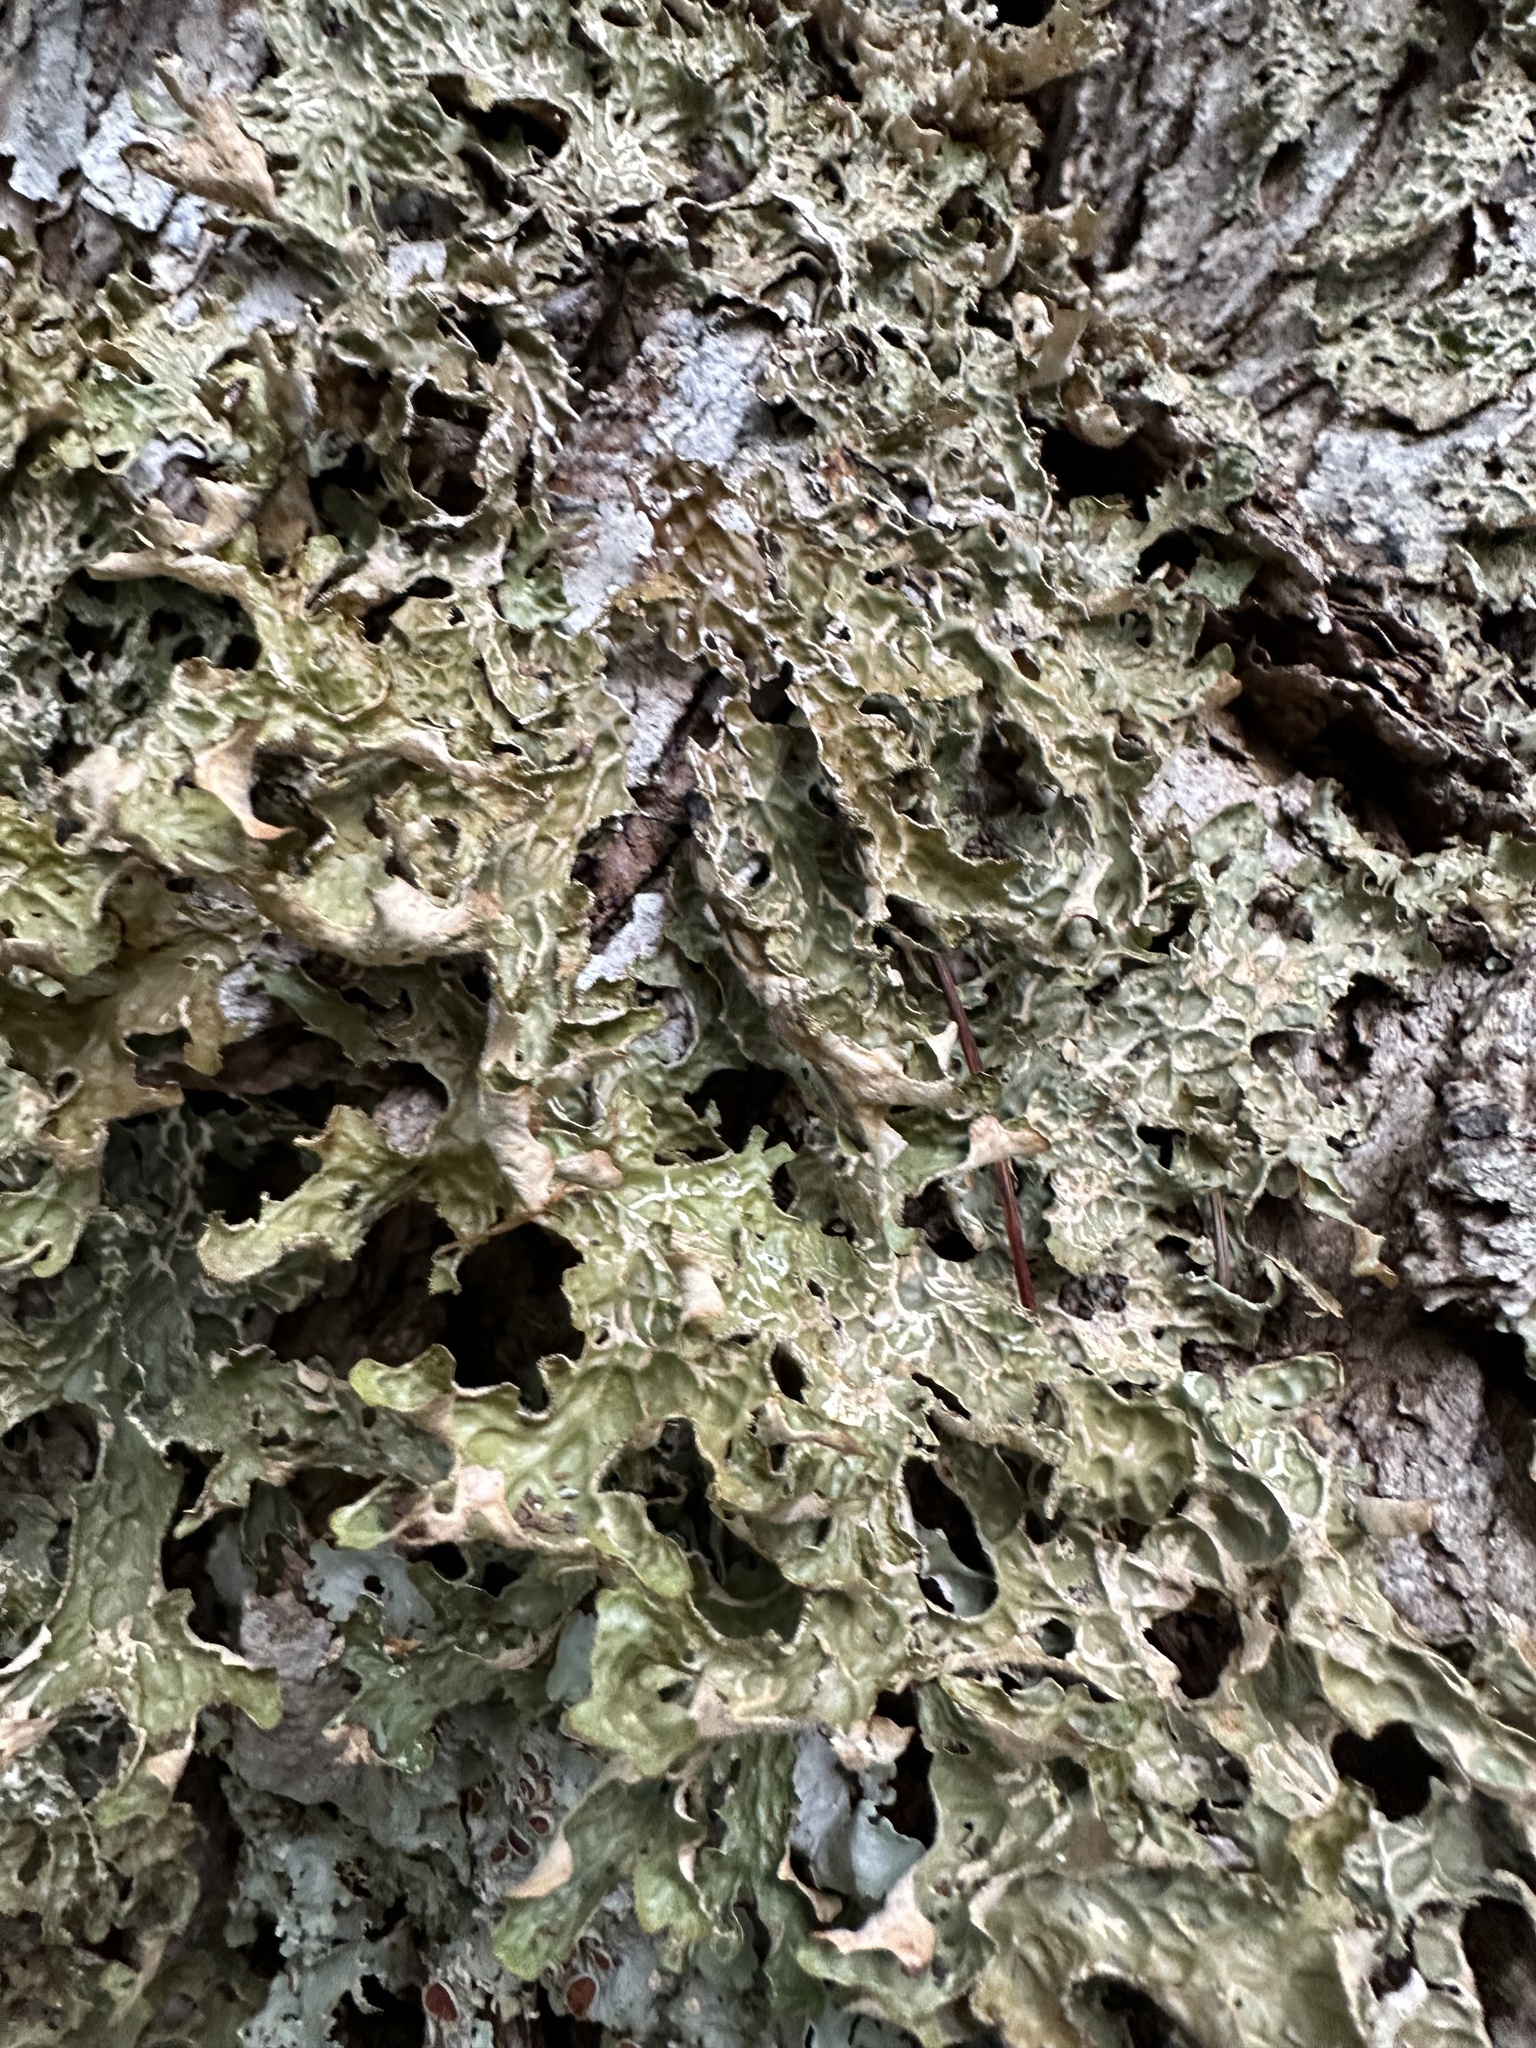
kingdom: Fungi
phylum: Ascomycota
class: Lecanoromycetes
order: Peltigerales
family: Lobariaceae
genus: Lobaria
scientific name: Lobaria pulmonaria
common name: Lungwort
